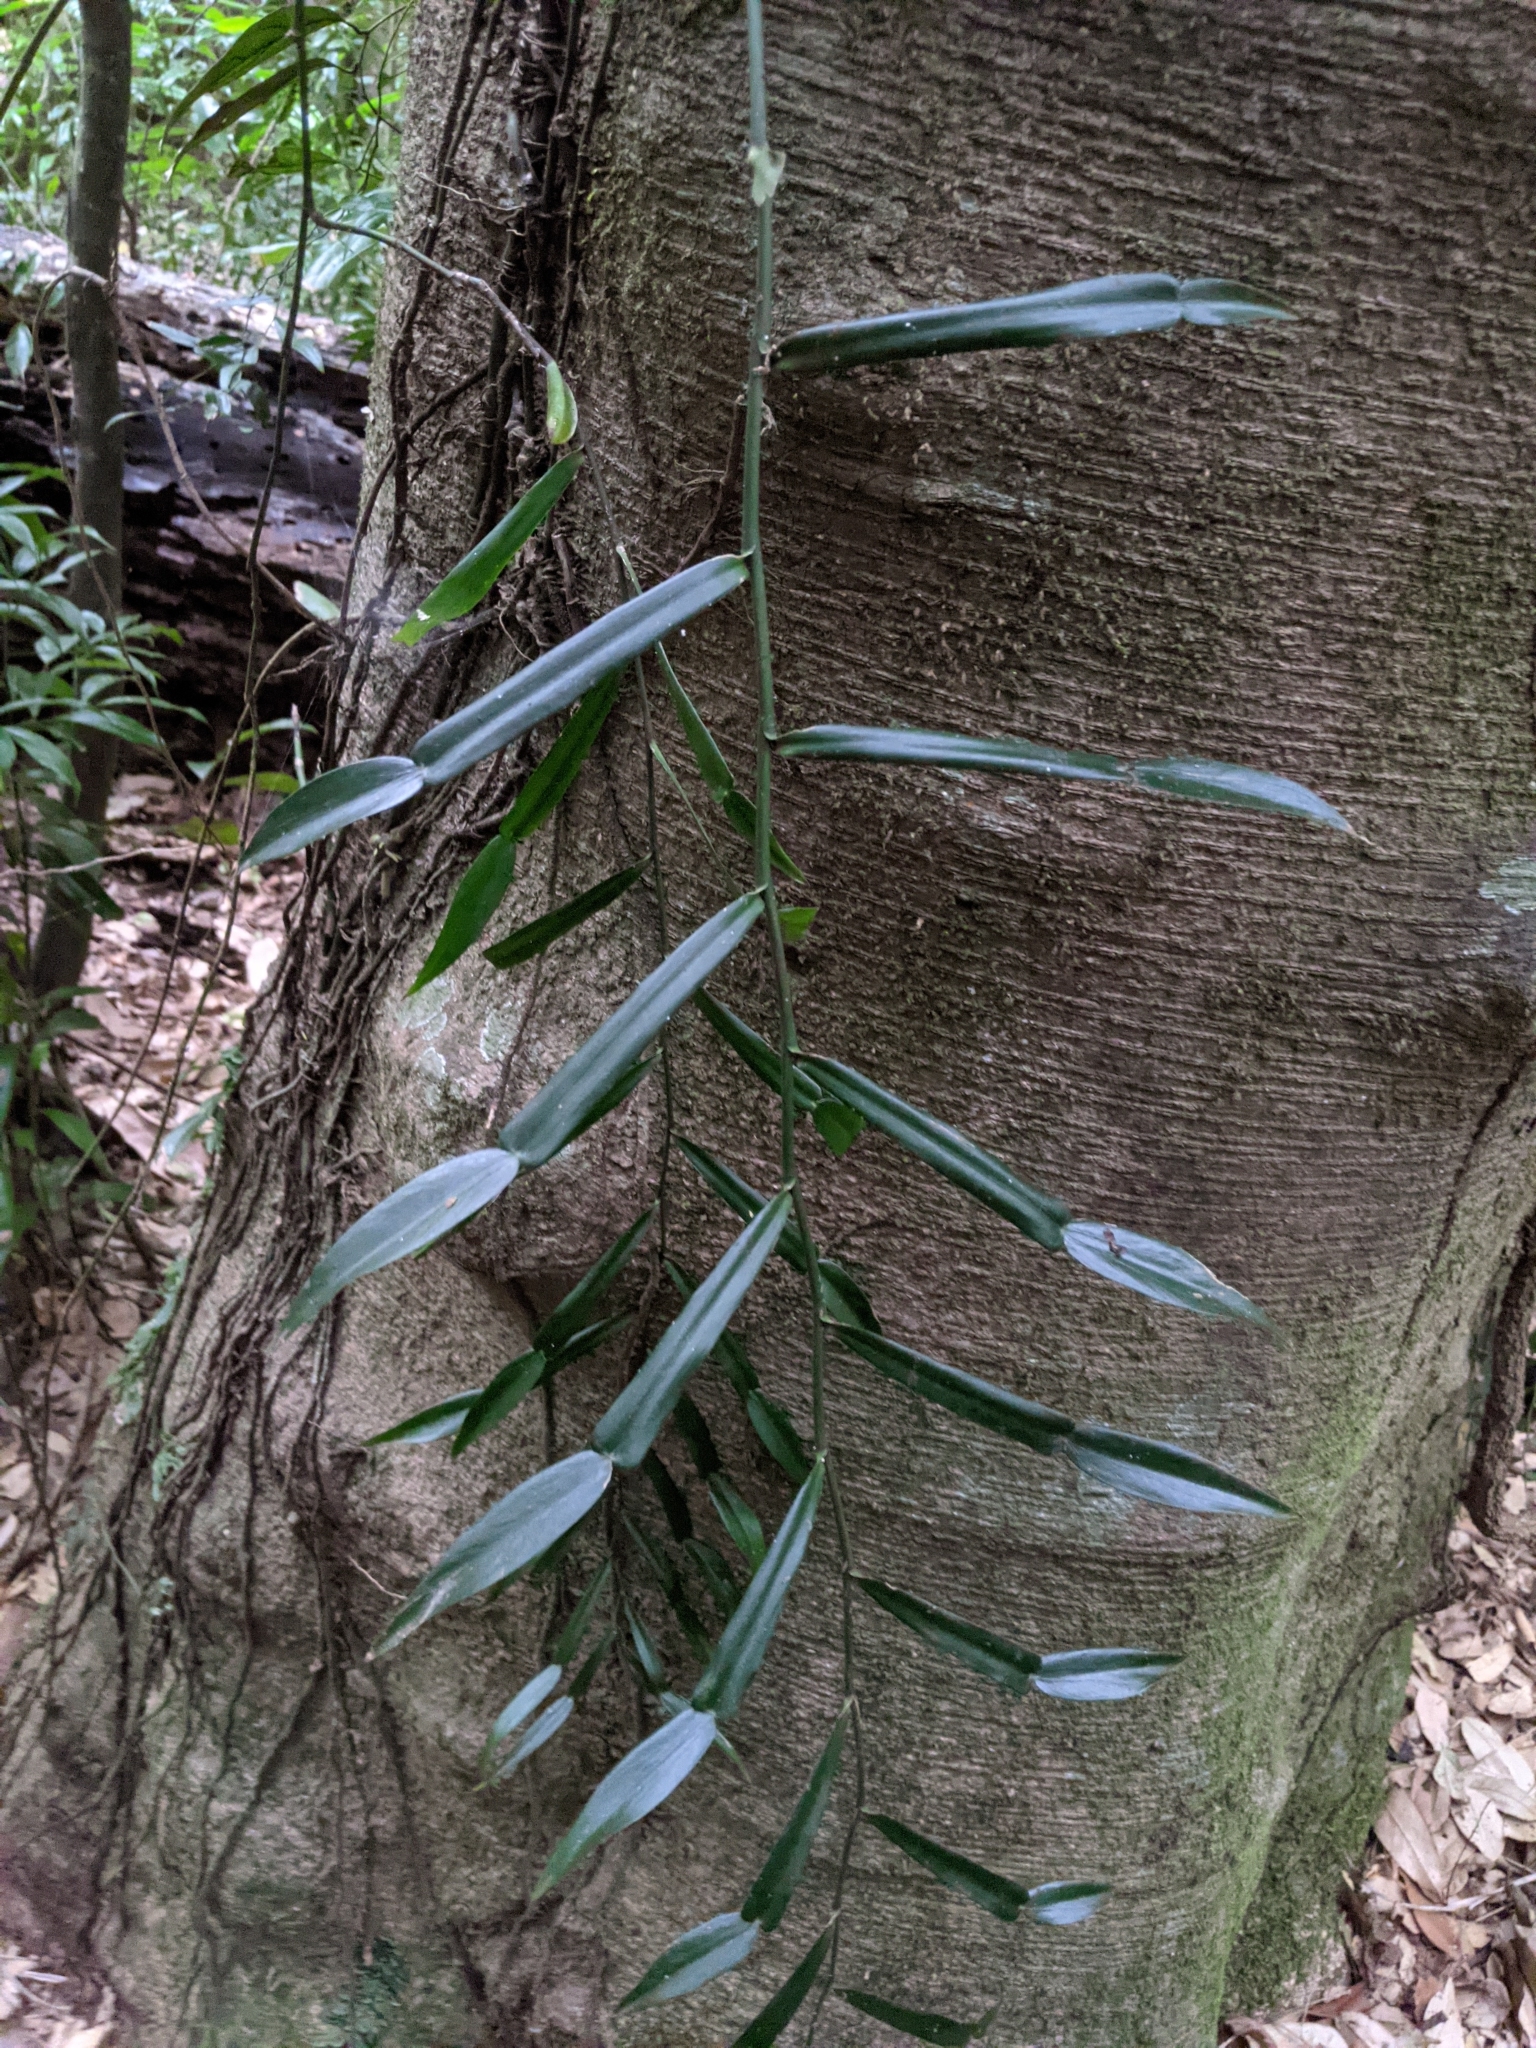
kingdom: Plantae
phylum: Tracheophyta
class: Liliopsida
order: Alismatales
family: Araceae
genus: Pothos
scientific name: Pothos longipes
